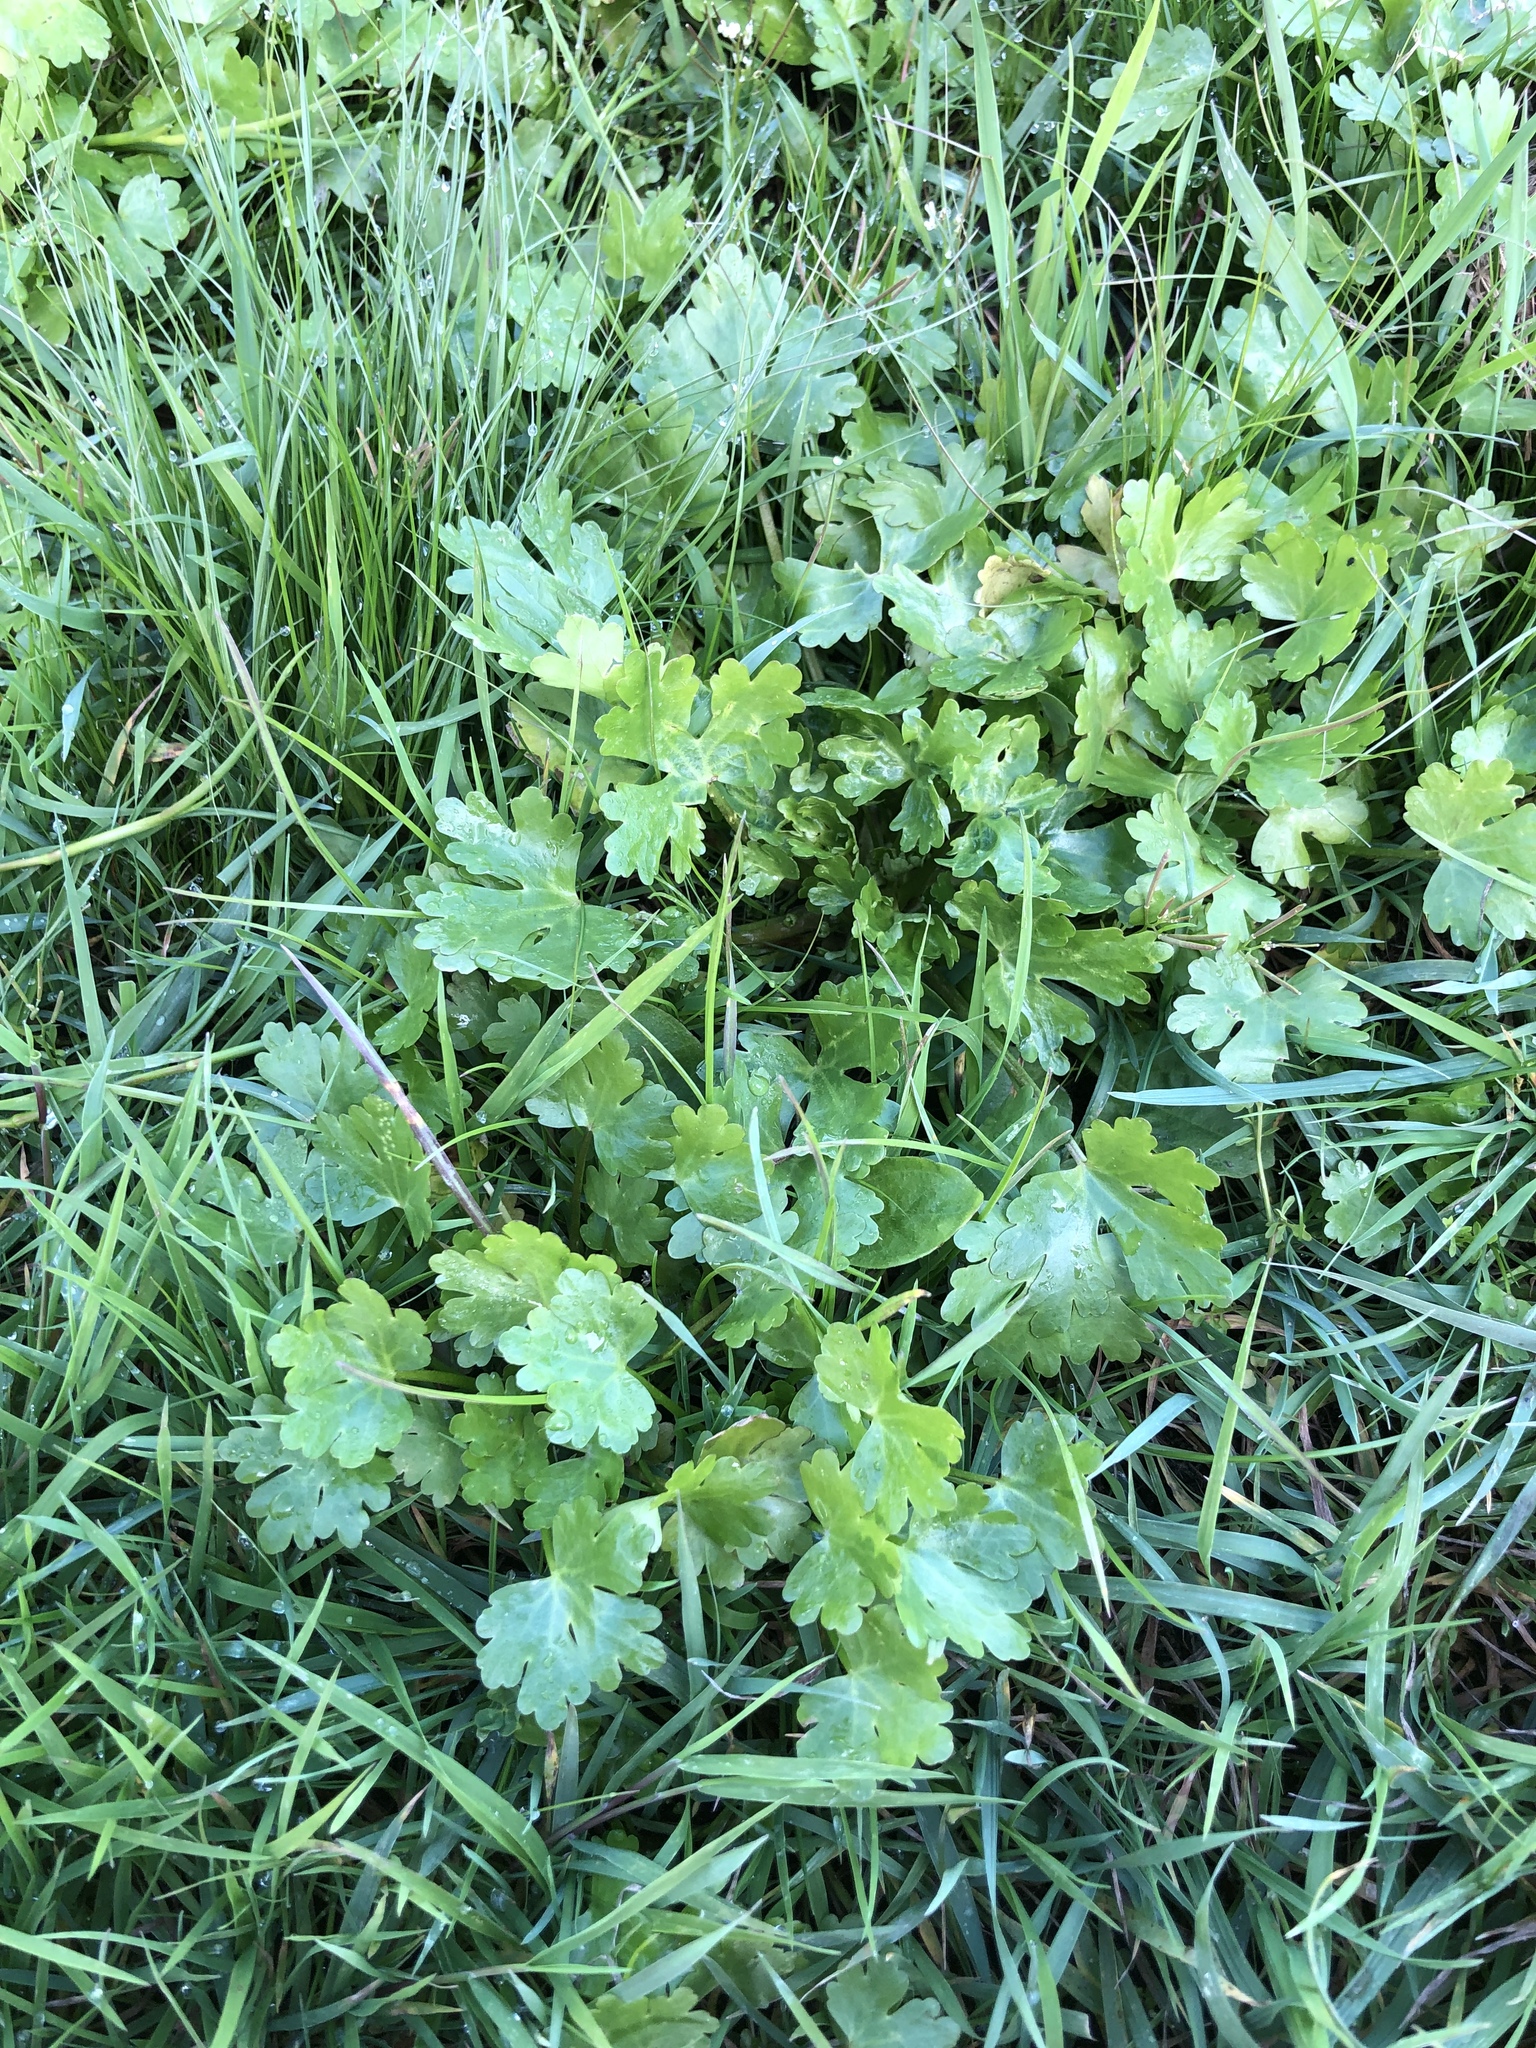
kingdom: Plantae
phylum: Tracheophyta
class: Magnoliopsida
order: Ranunculales
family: Ranunculaceae
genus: Ranunculus
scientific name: Ranunculus sceleratus
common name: Celery-leaved buttercup
